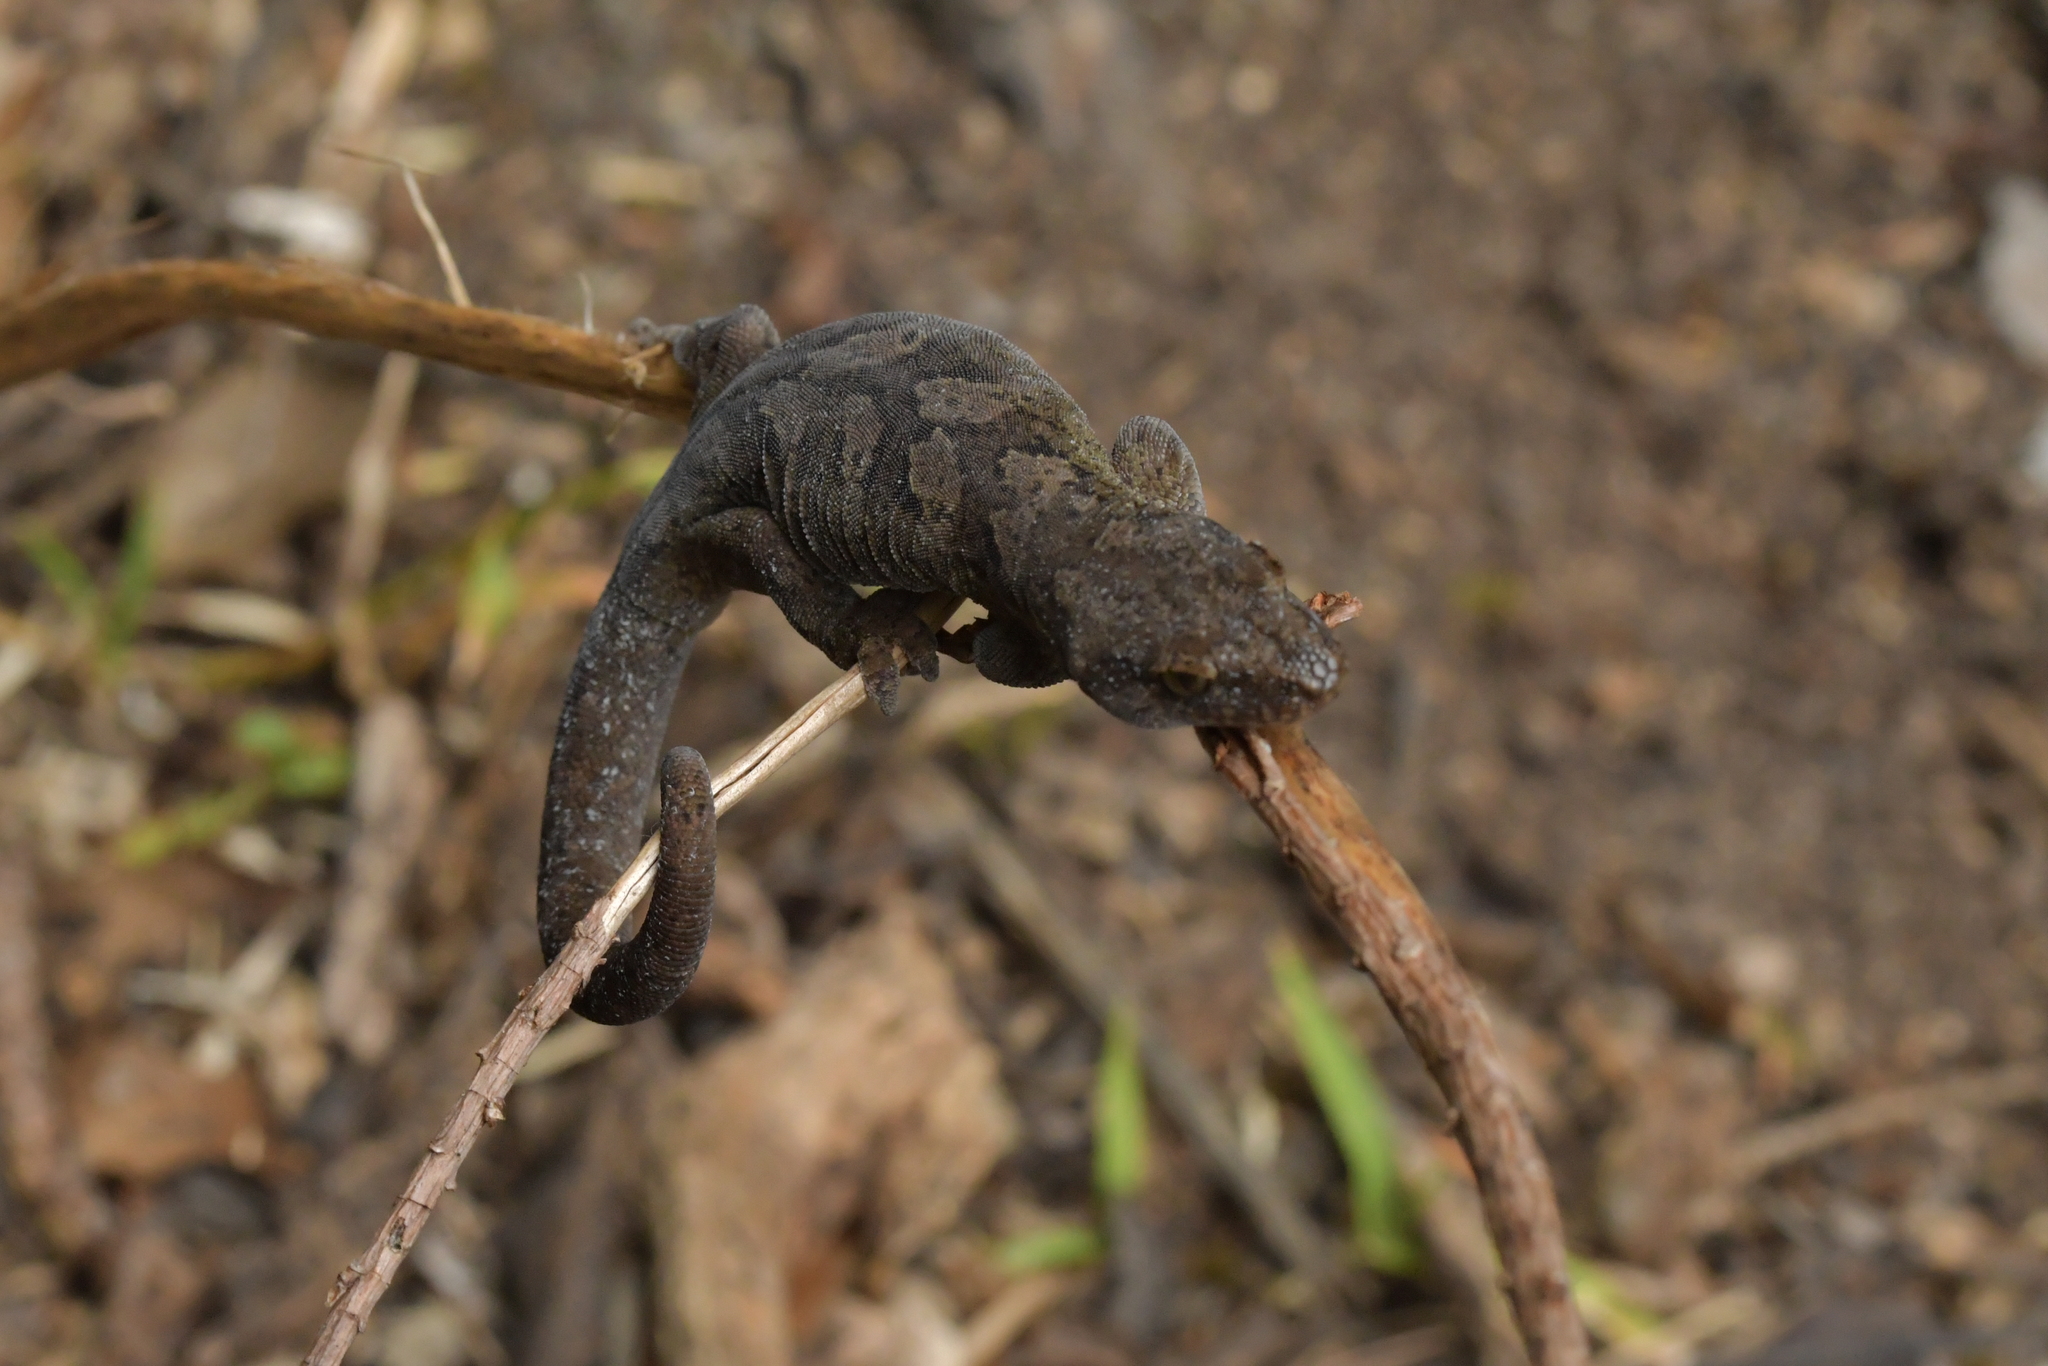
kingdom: Animalia
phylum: Chordata
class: Squamata
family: Diplodactylidae
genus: Woodworthia
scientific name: Woodworthia maculata
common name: Raukawa gecko
